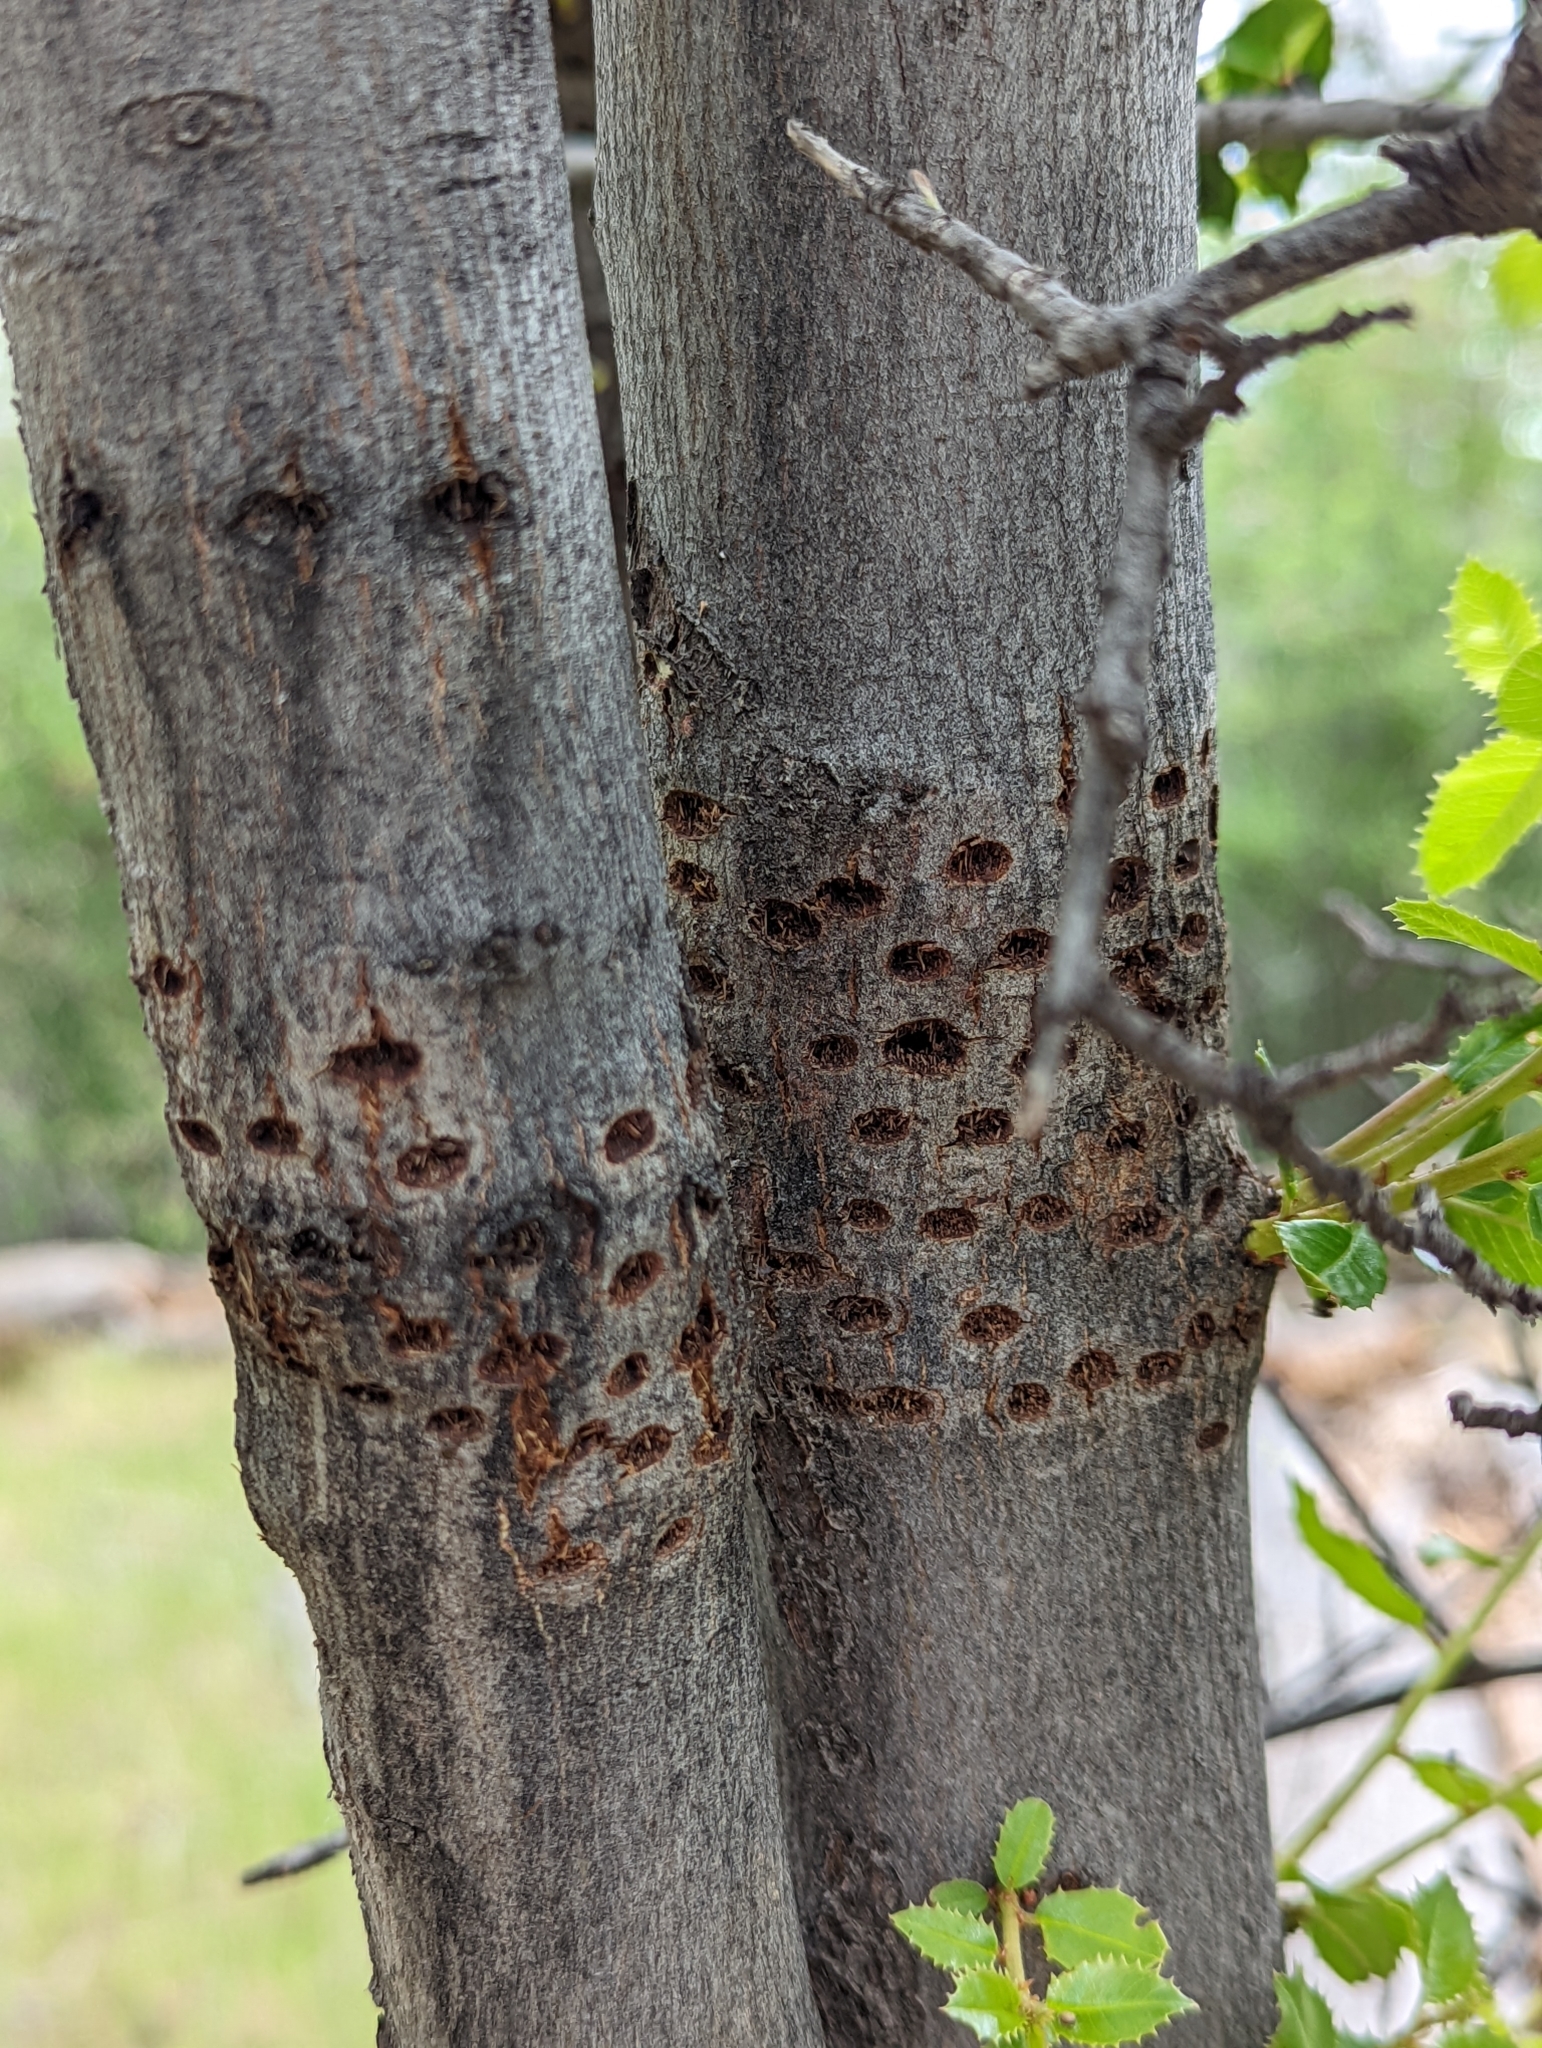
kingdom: Animalia
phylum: Chordata
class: Aves
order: Piciformes
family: Picidae
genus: Sphyrapicus
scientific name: Sphyrapicus
